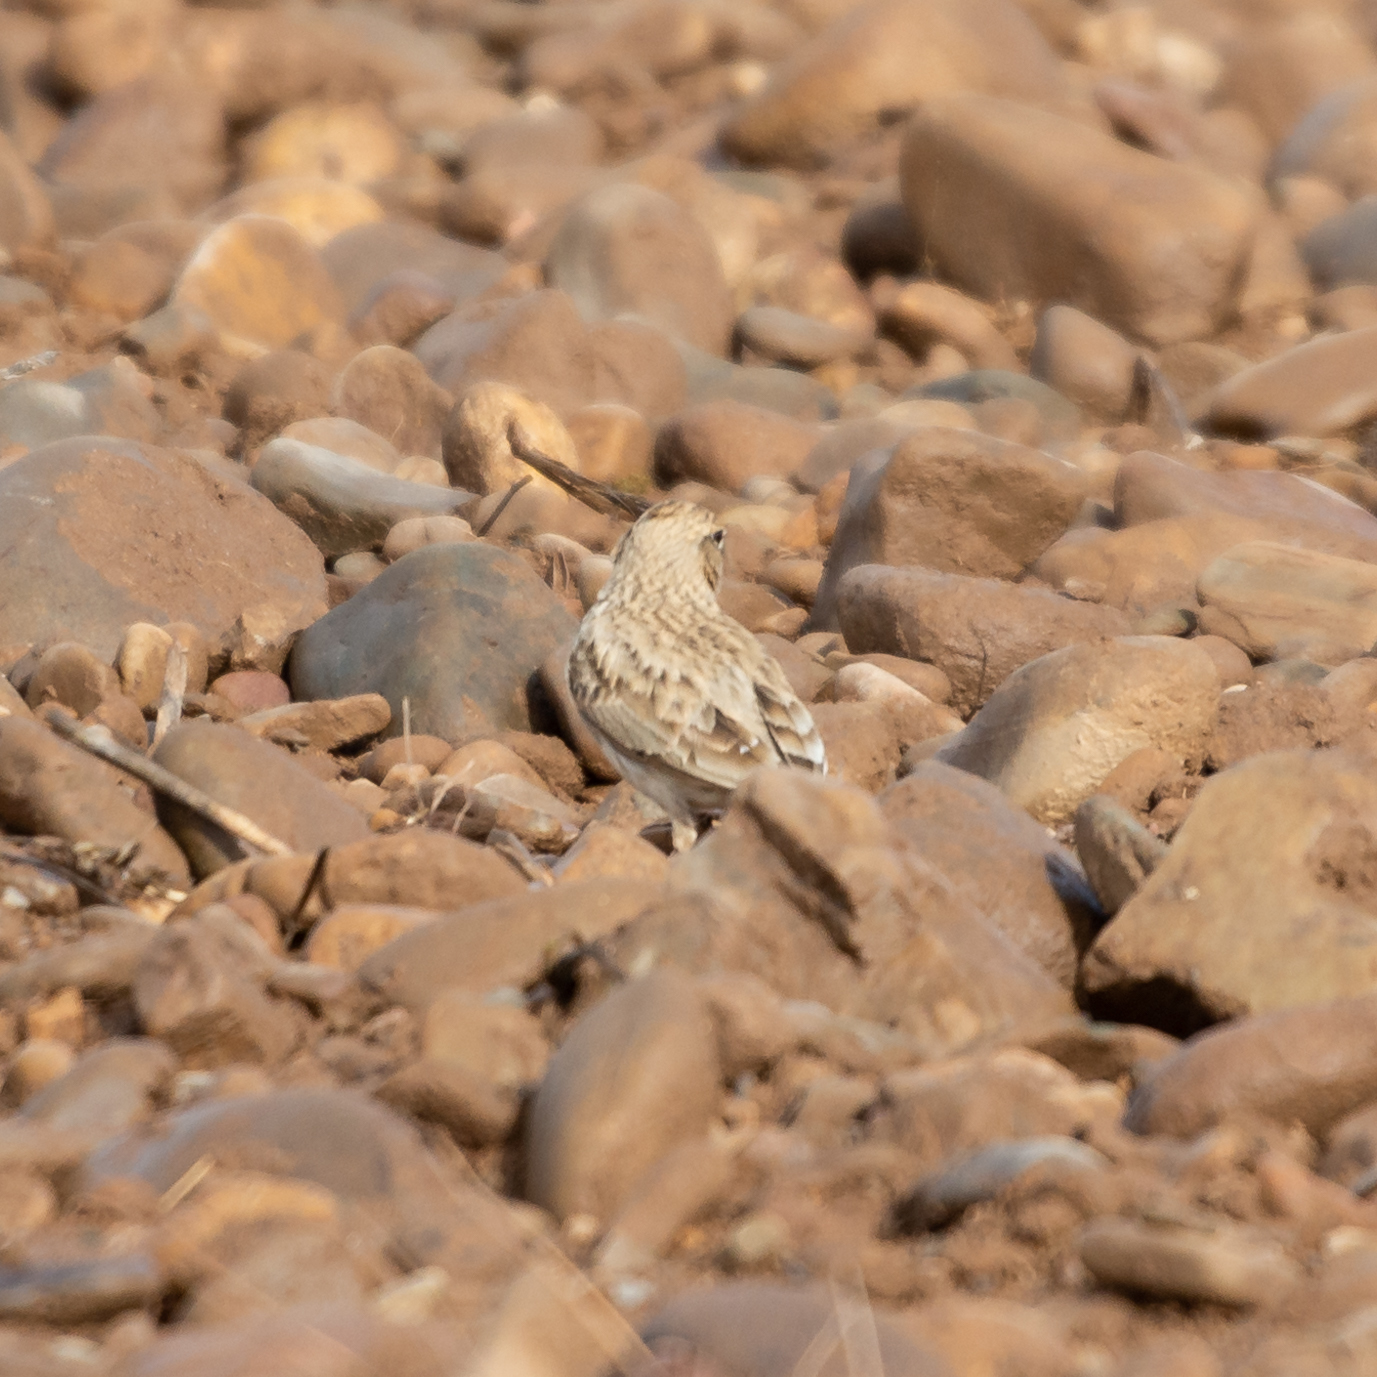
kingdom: Animalia
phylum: Chordata
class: Aves
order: Passeriformes
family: Alaudidae
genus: Galerida
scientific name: Galerida cristata
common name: Crested lark
